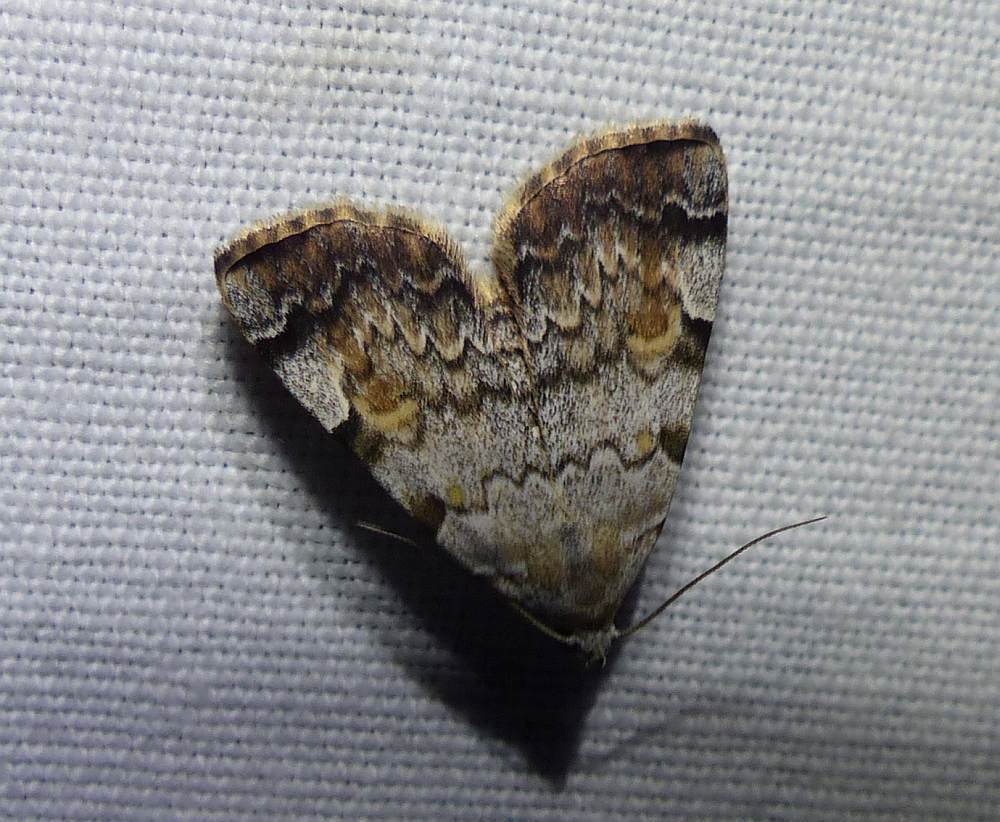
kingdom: Animalia
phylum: Arthropoda
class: Insecta
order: Lepidoptera
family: Erebidae
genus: Idia
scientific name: Idia americalis
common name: American idia moth
